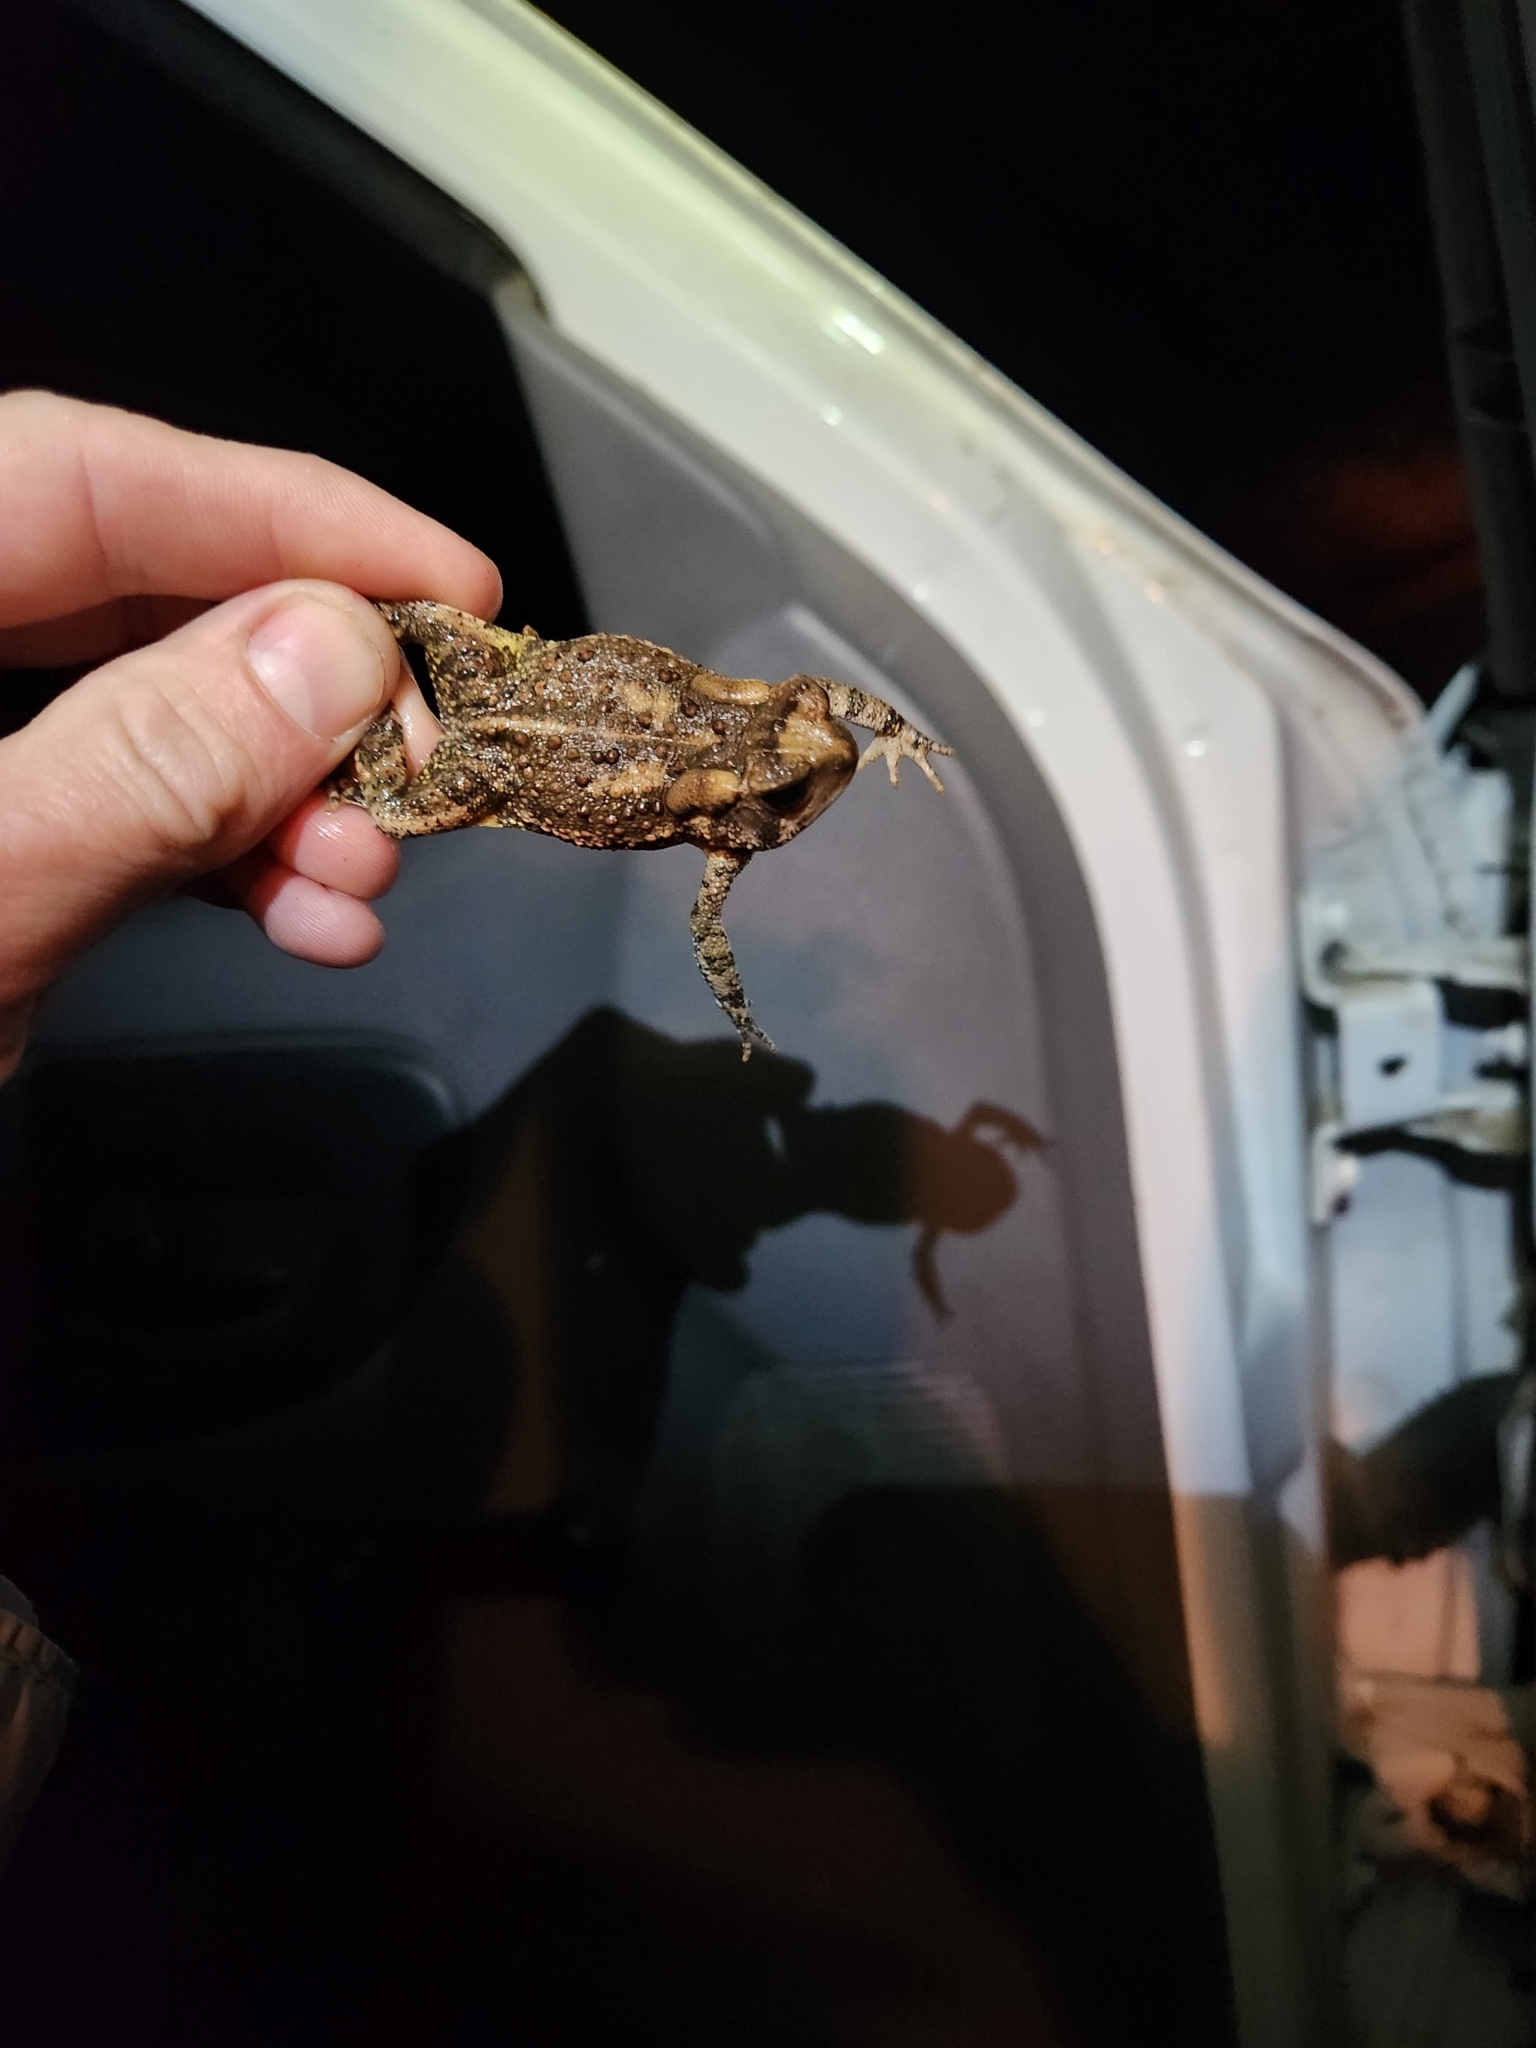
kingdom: Animalia
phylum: Chordata
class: Amphibia
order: Anura
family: Bufonidae
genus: Anaxyrus
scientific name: Anaxyrus americanus
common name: American toad
